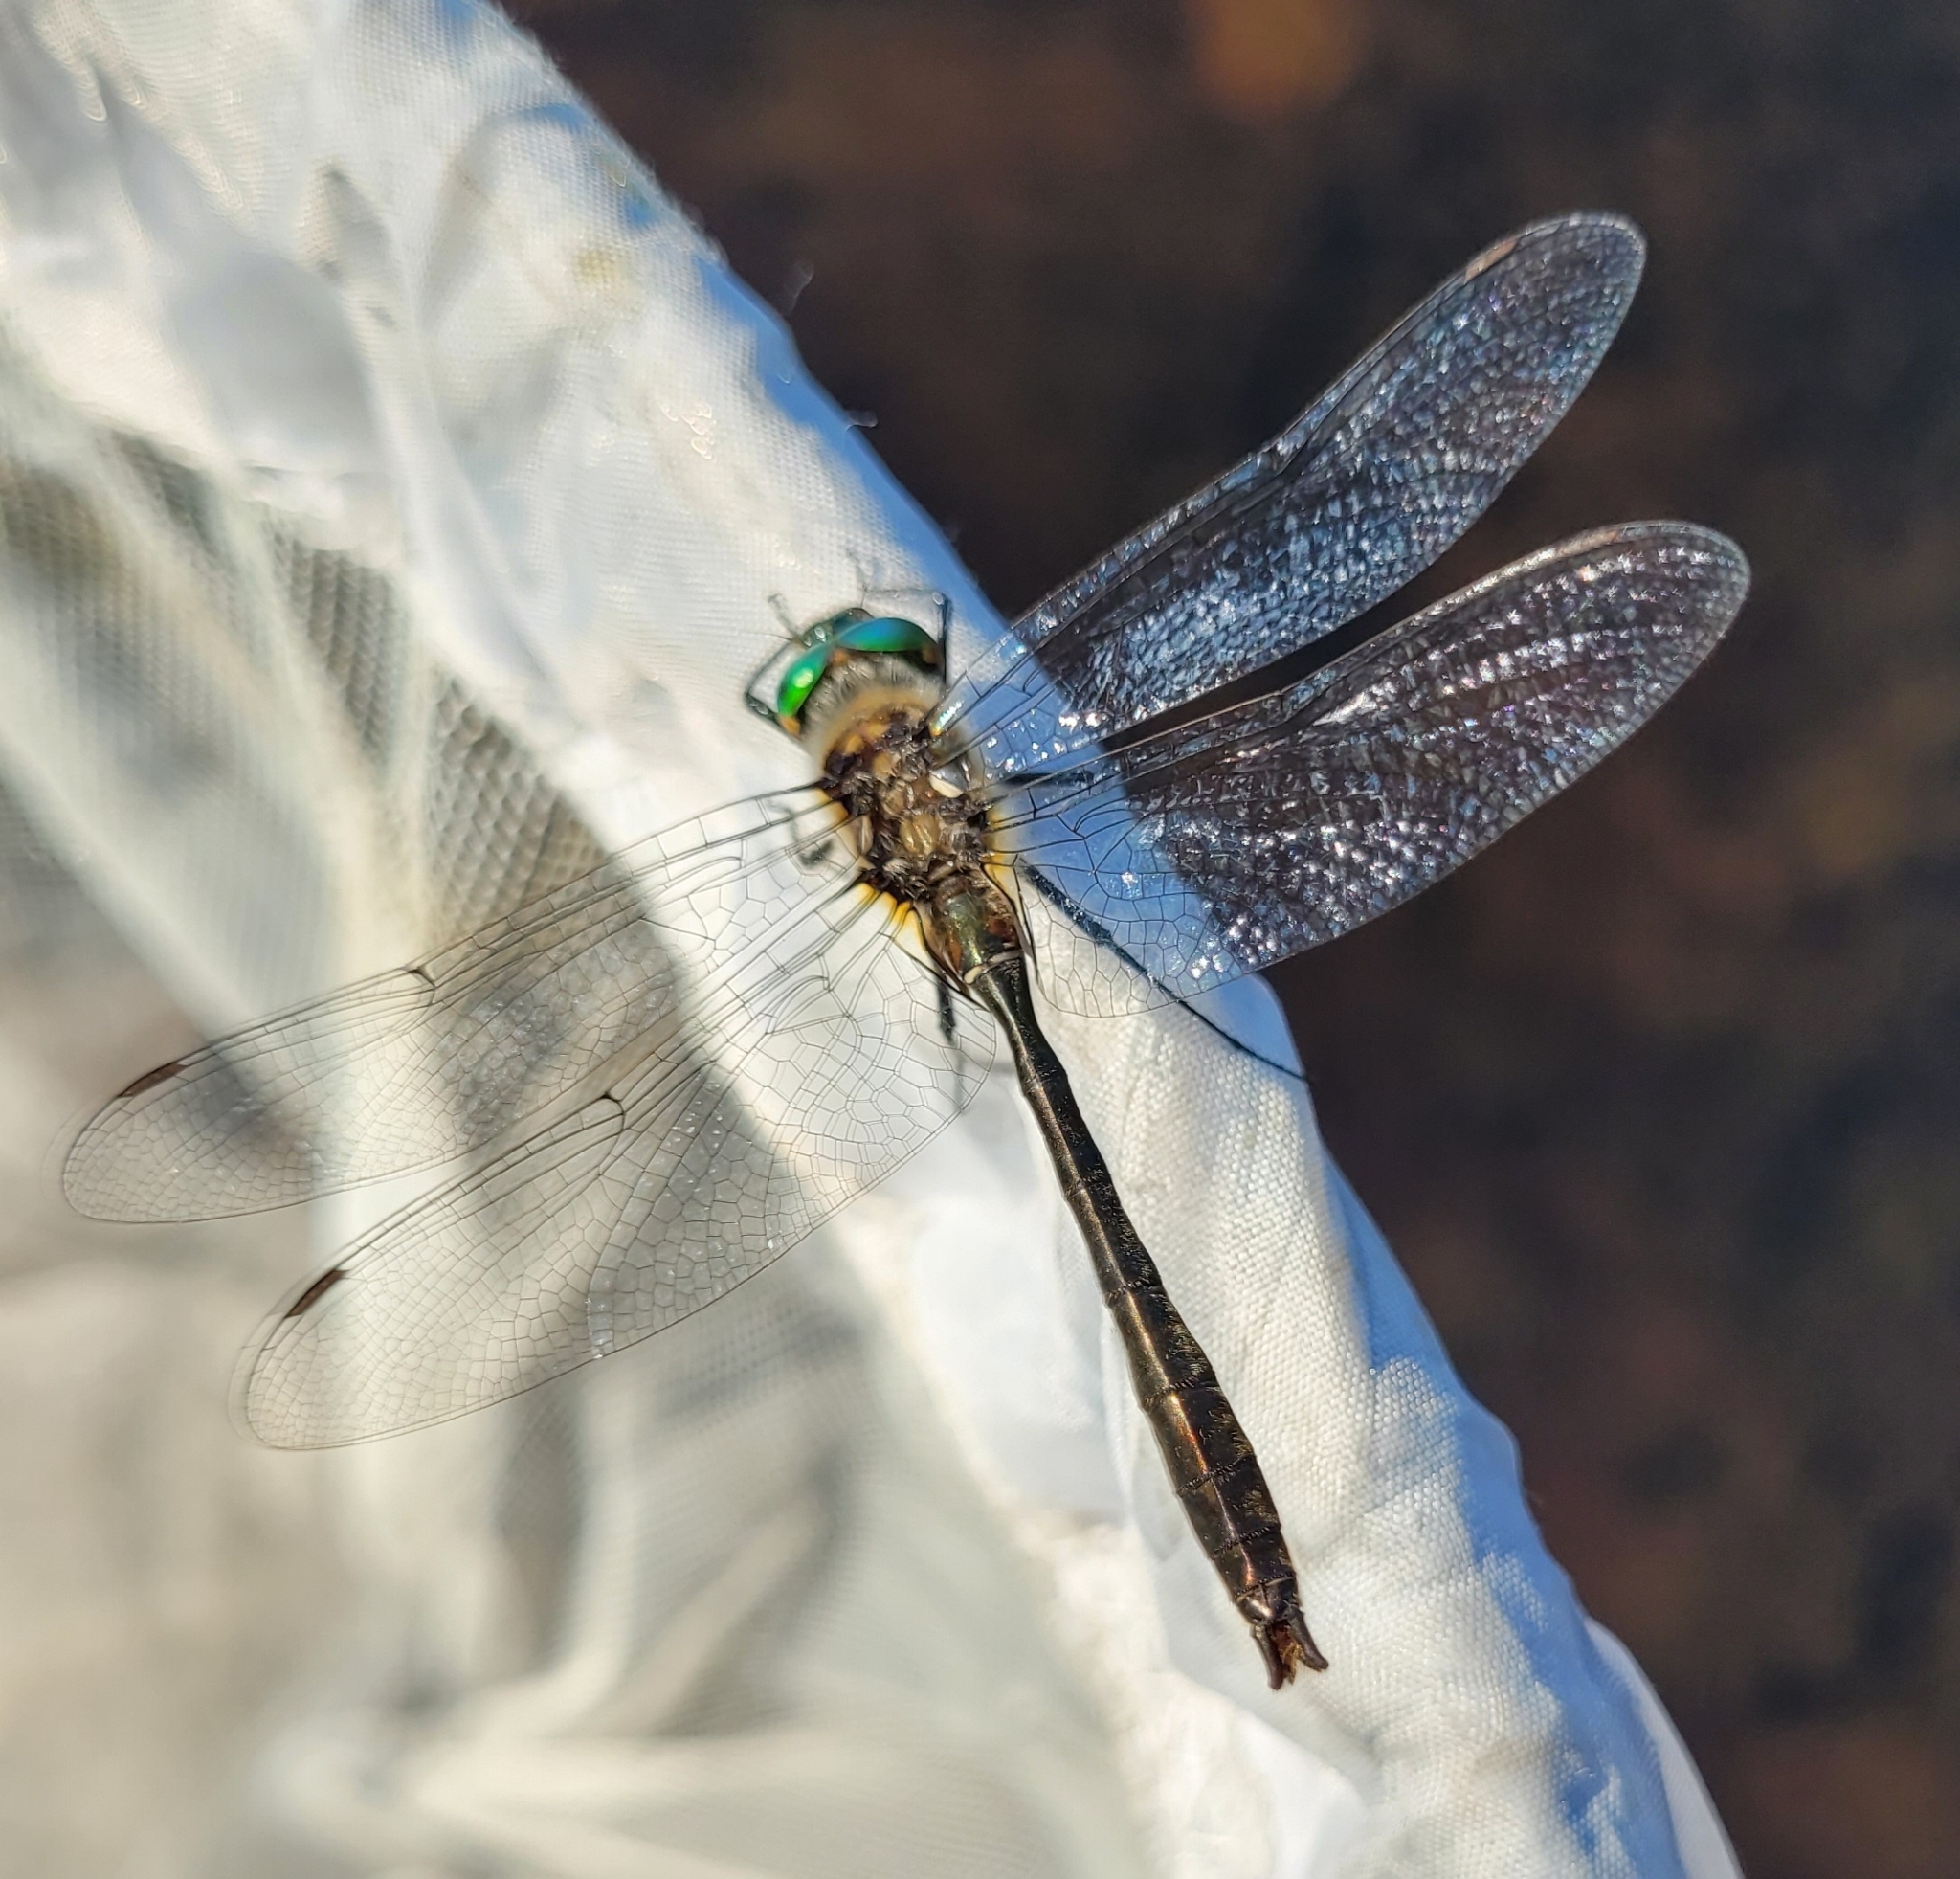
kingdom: Animalia
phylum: Arthropoda
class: Insecta
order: Odonata
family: Corduliidae
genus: Cordulia
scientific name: Cordulia shurtleffii
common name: American emerald
